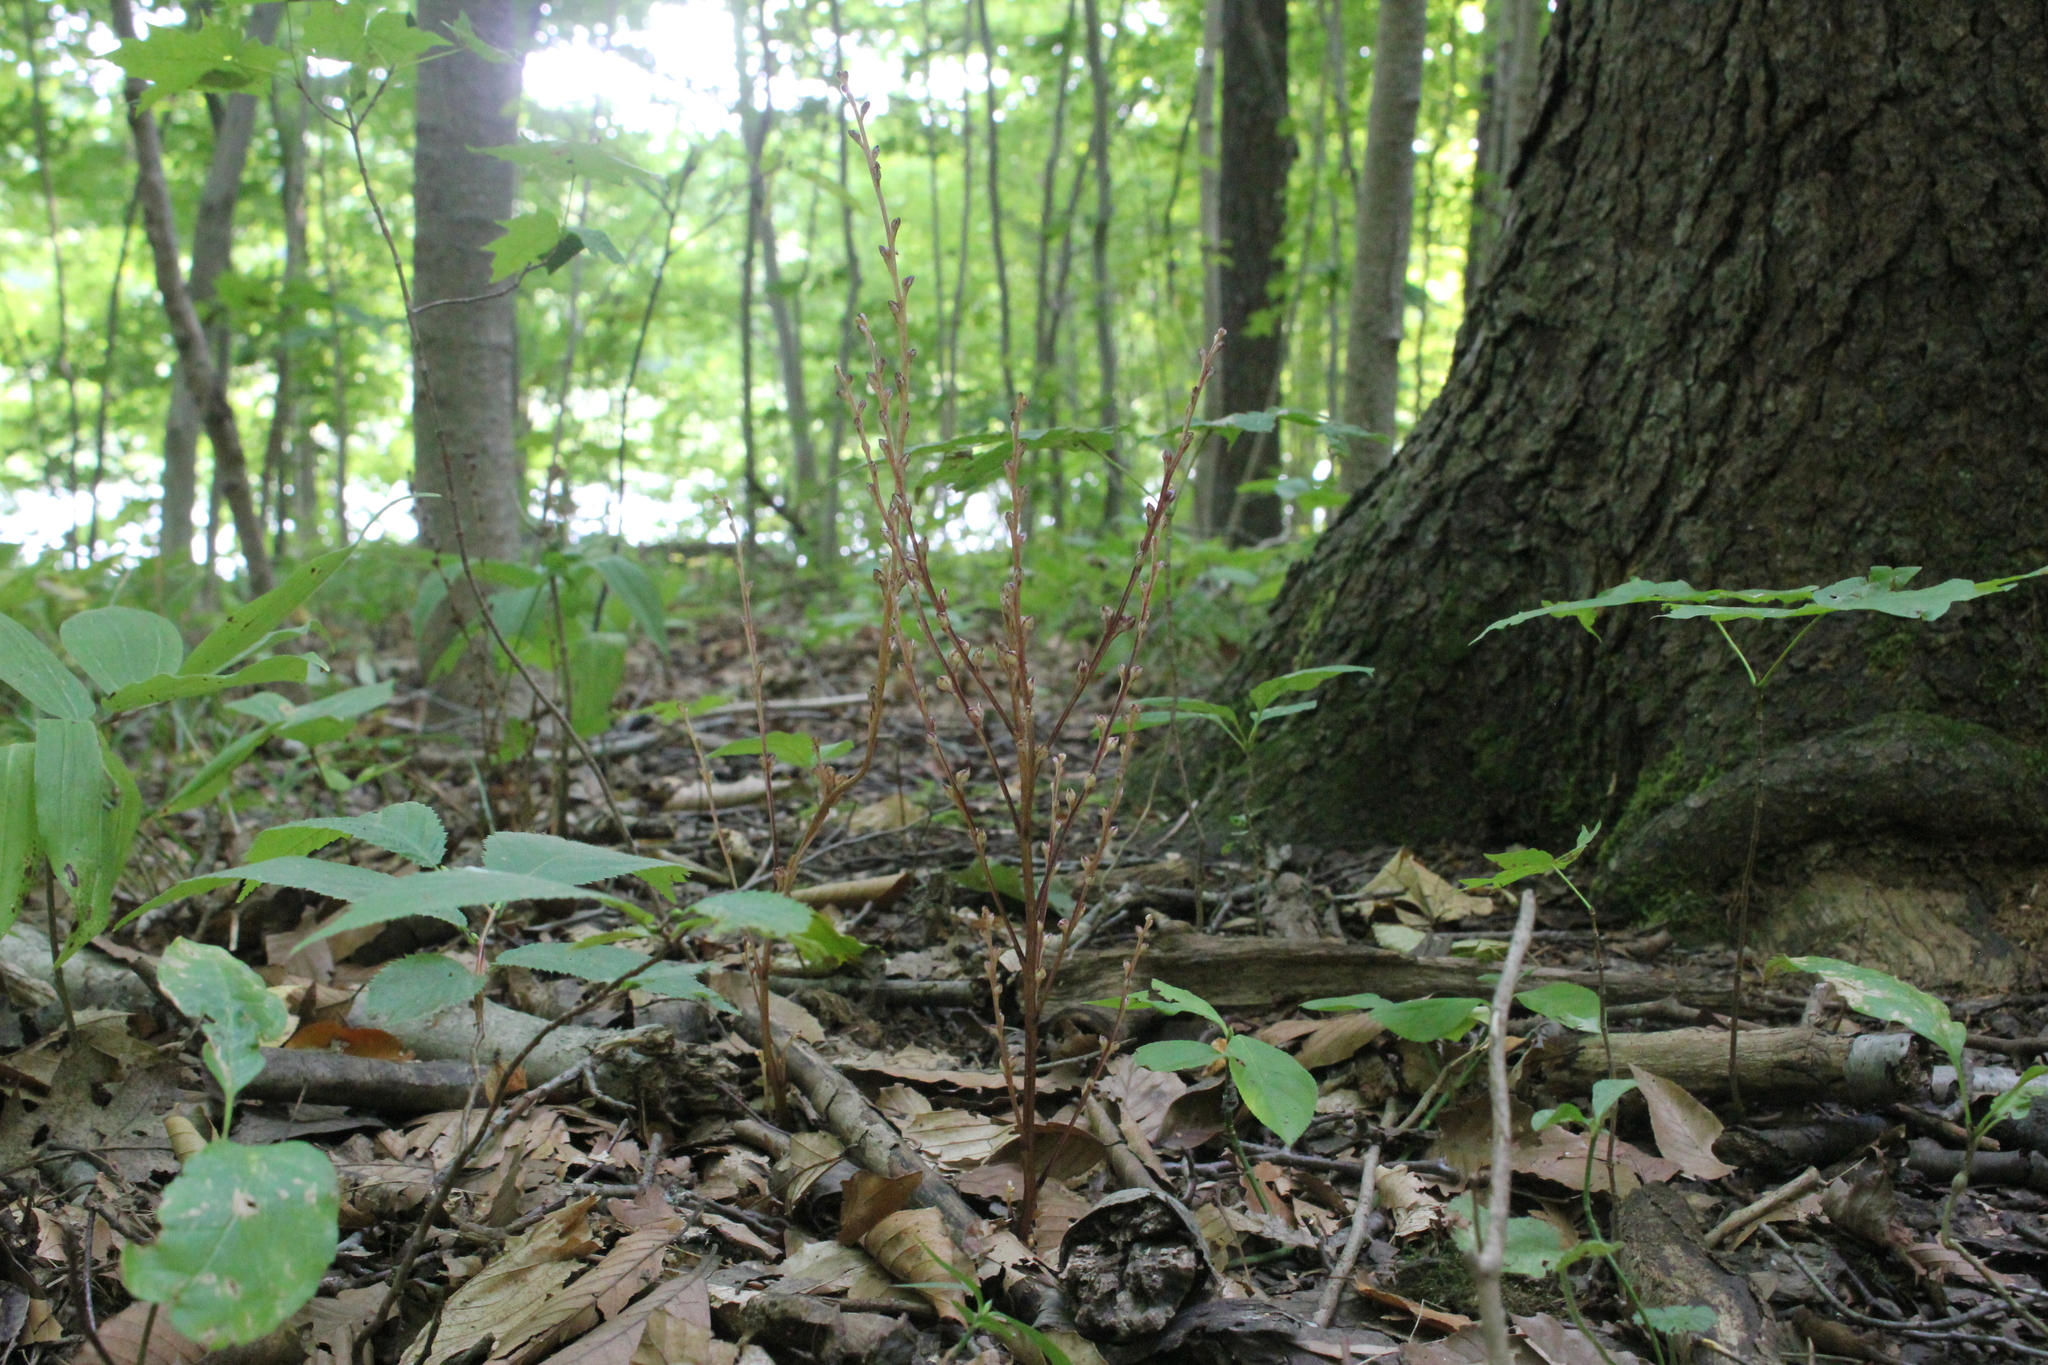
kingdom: Plantae
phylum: Tracheophyta
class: Magnoliopsida
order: Lamiales
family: Orobanchaceae
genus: Epifagus
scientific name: Epifagus virginiana
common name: Beechdrops
